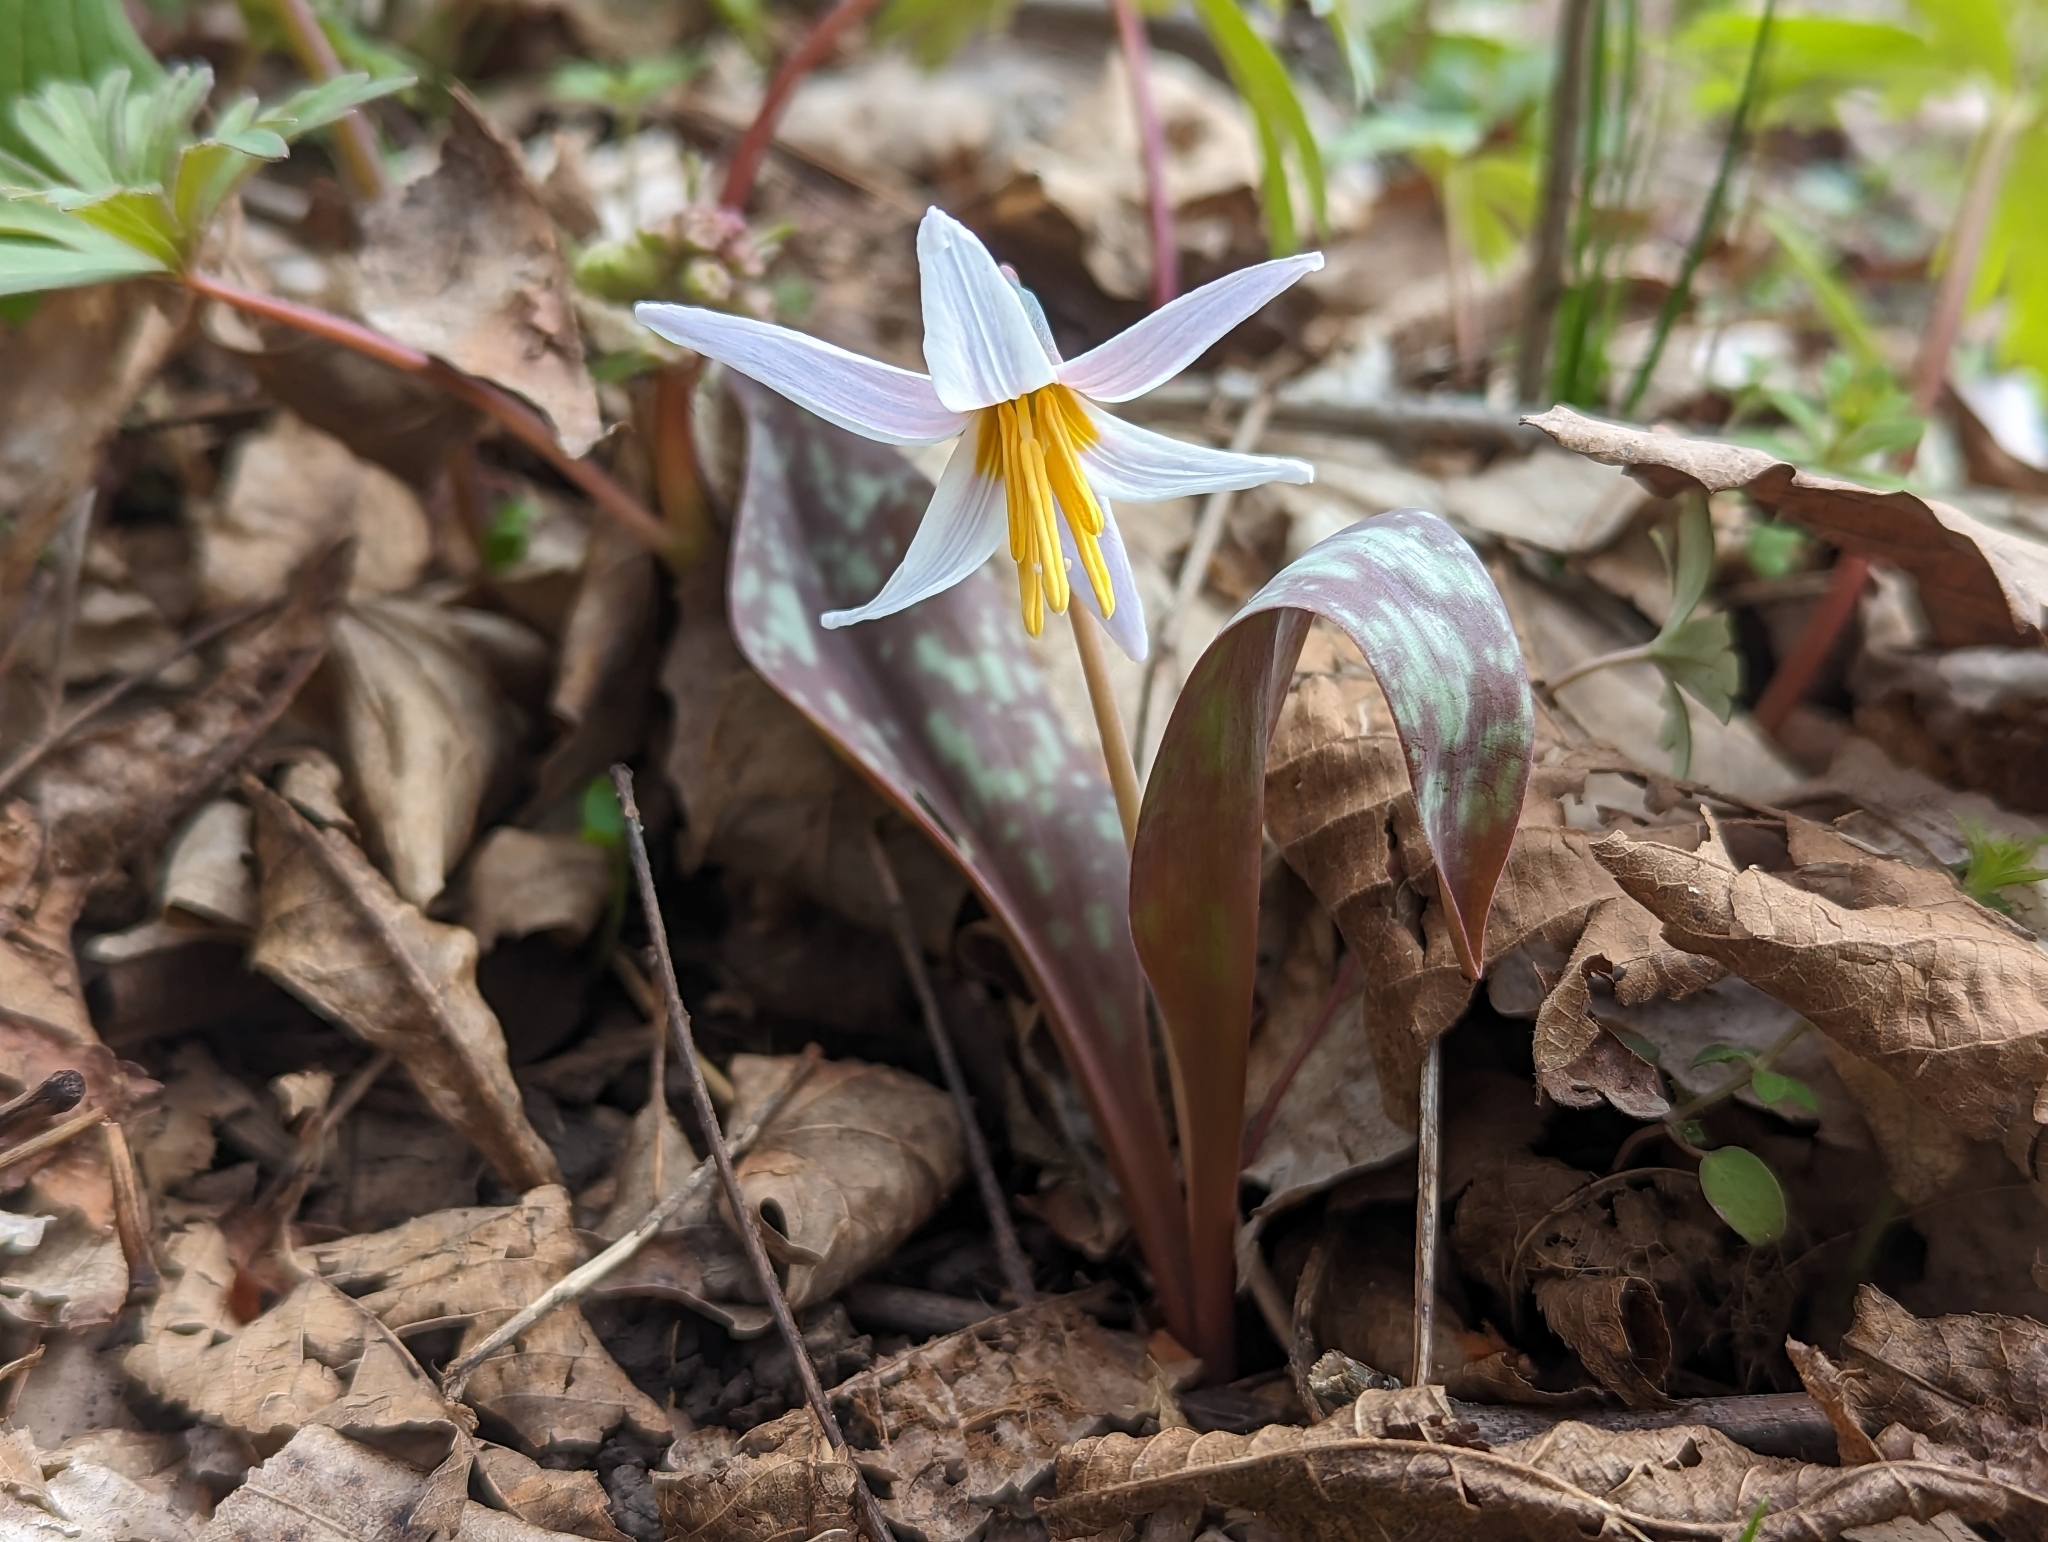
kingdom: Plantae
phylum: Tracheophyta
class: Liliopsida
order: Liliales
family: Liliaceae
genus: Erythronium
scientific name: Erythronium albidum
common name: White trout-lily
